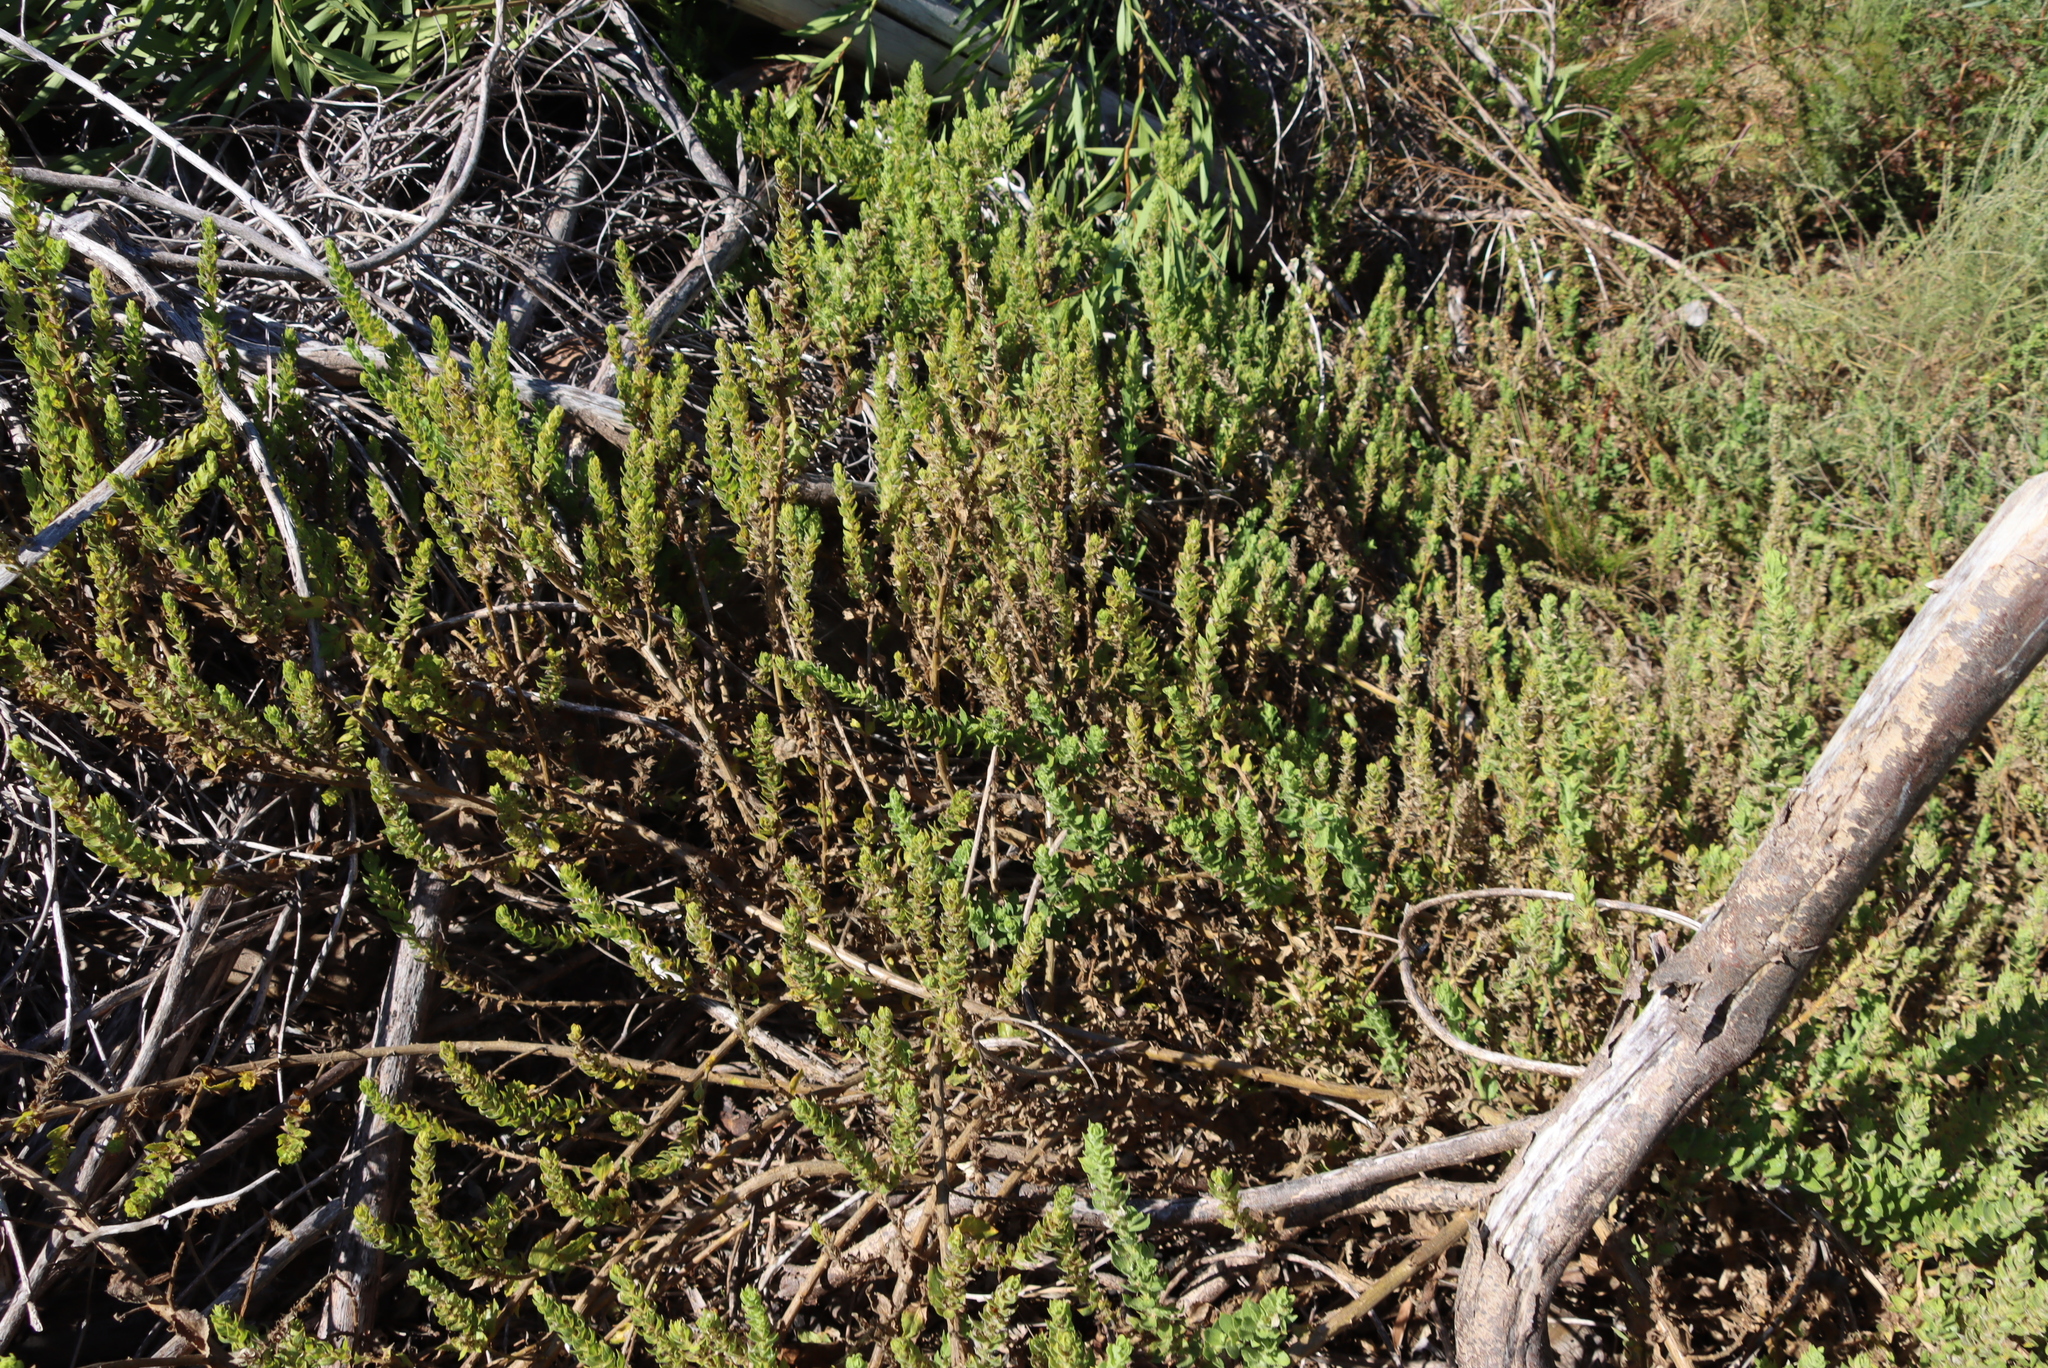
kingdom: Plantae
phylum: Tracheophyta
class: Magnoliopsida
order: Lamiales
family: Scrophulariaceae
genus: Oftia
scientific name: Oftia africana
